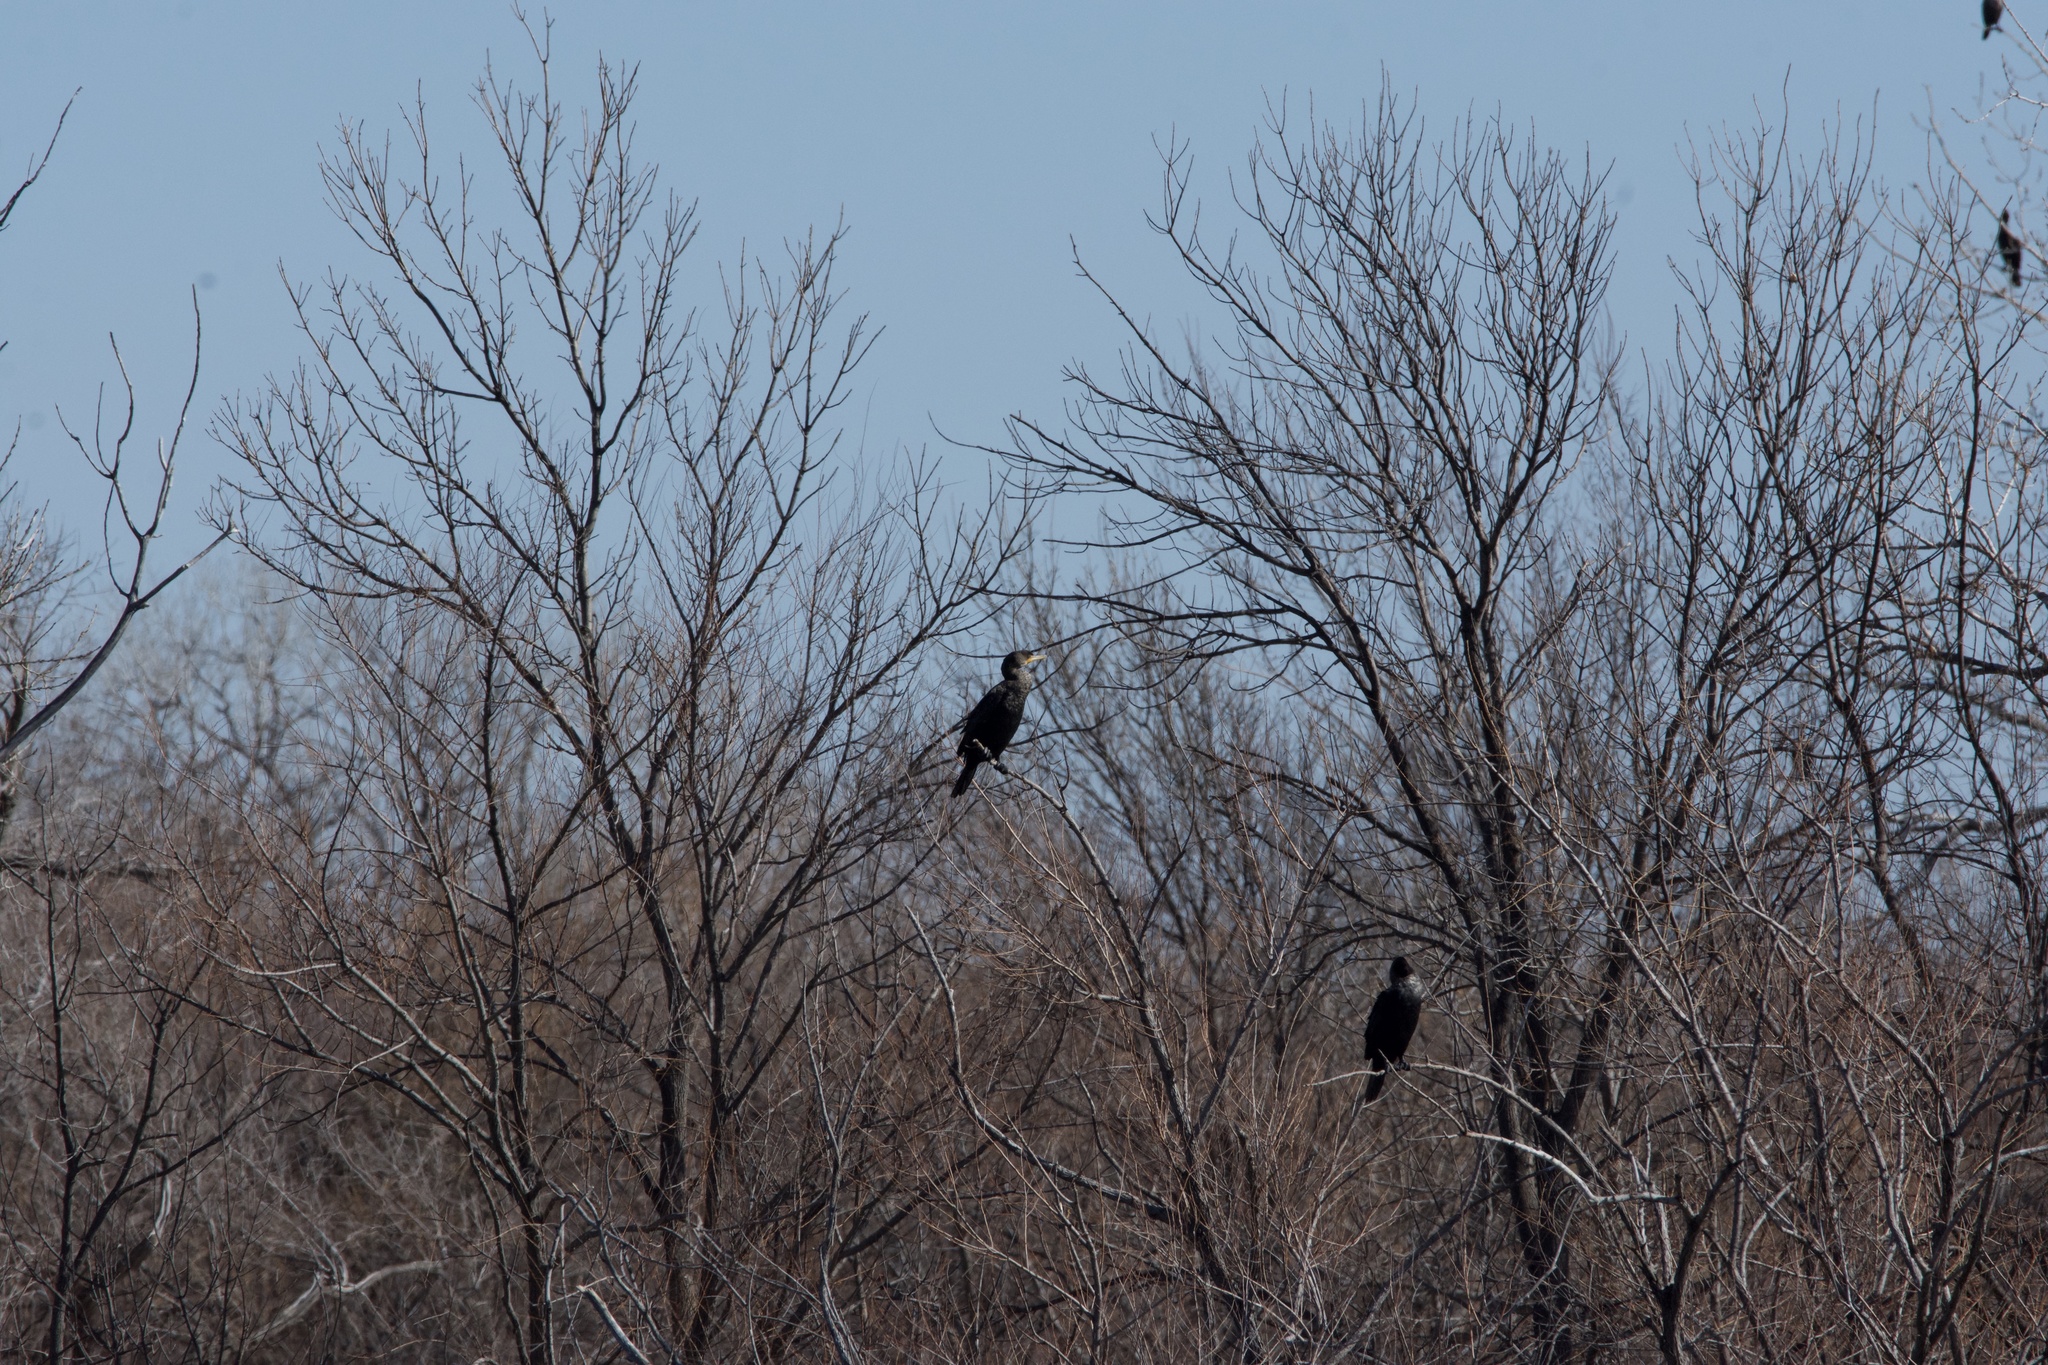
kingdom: Animalia
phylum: Chordata
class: Aves
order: Suliformes
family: Phalacrocoracidae
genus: Phalacrocorax
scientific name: Phalacrocorax auritus
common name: Double-crested cormorant
